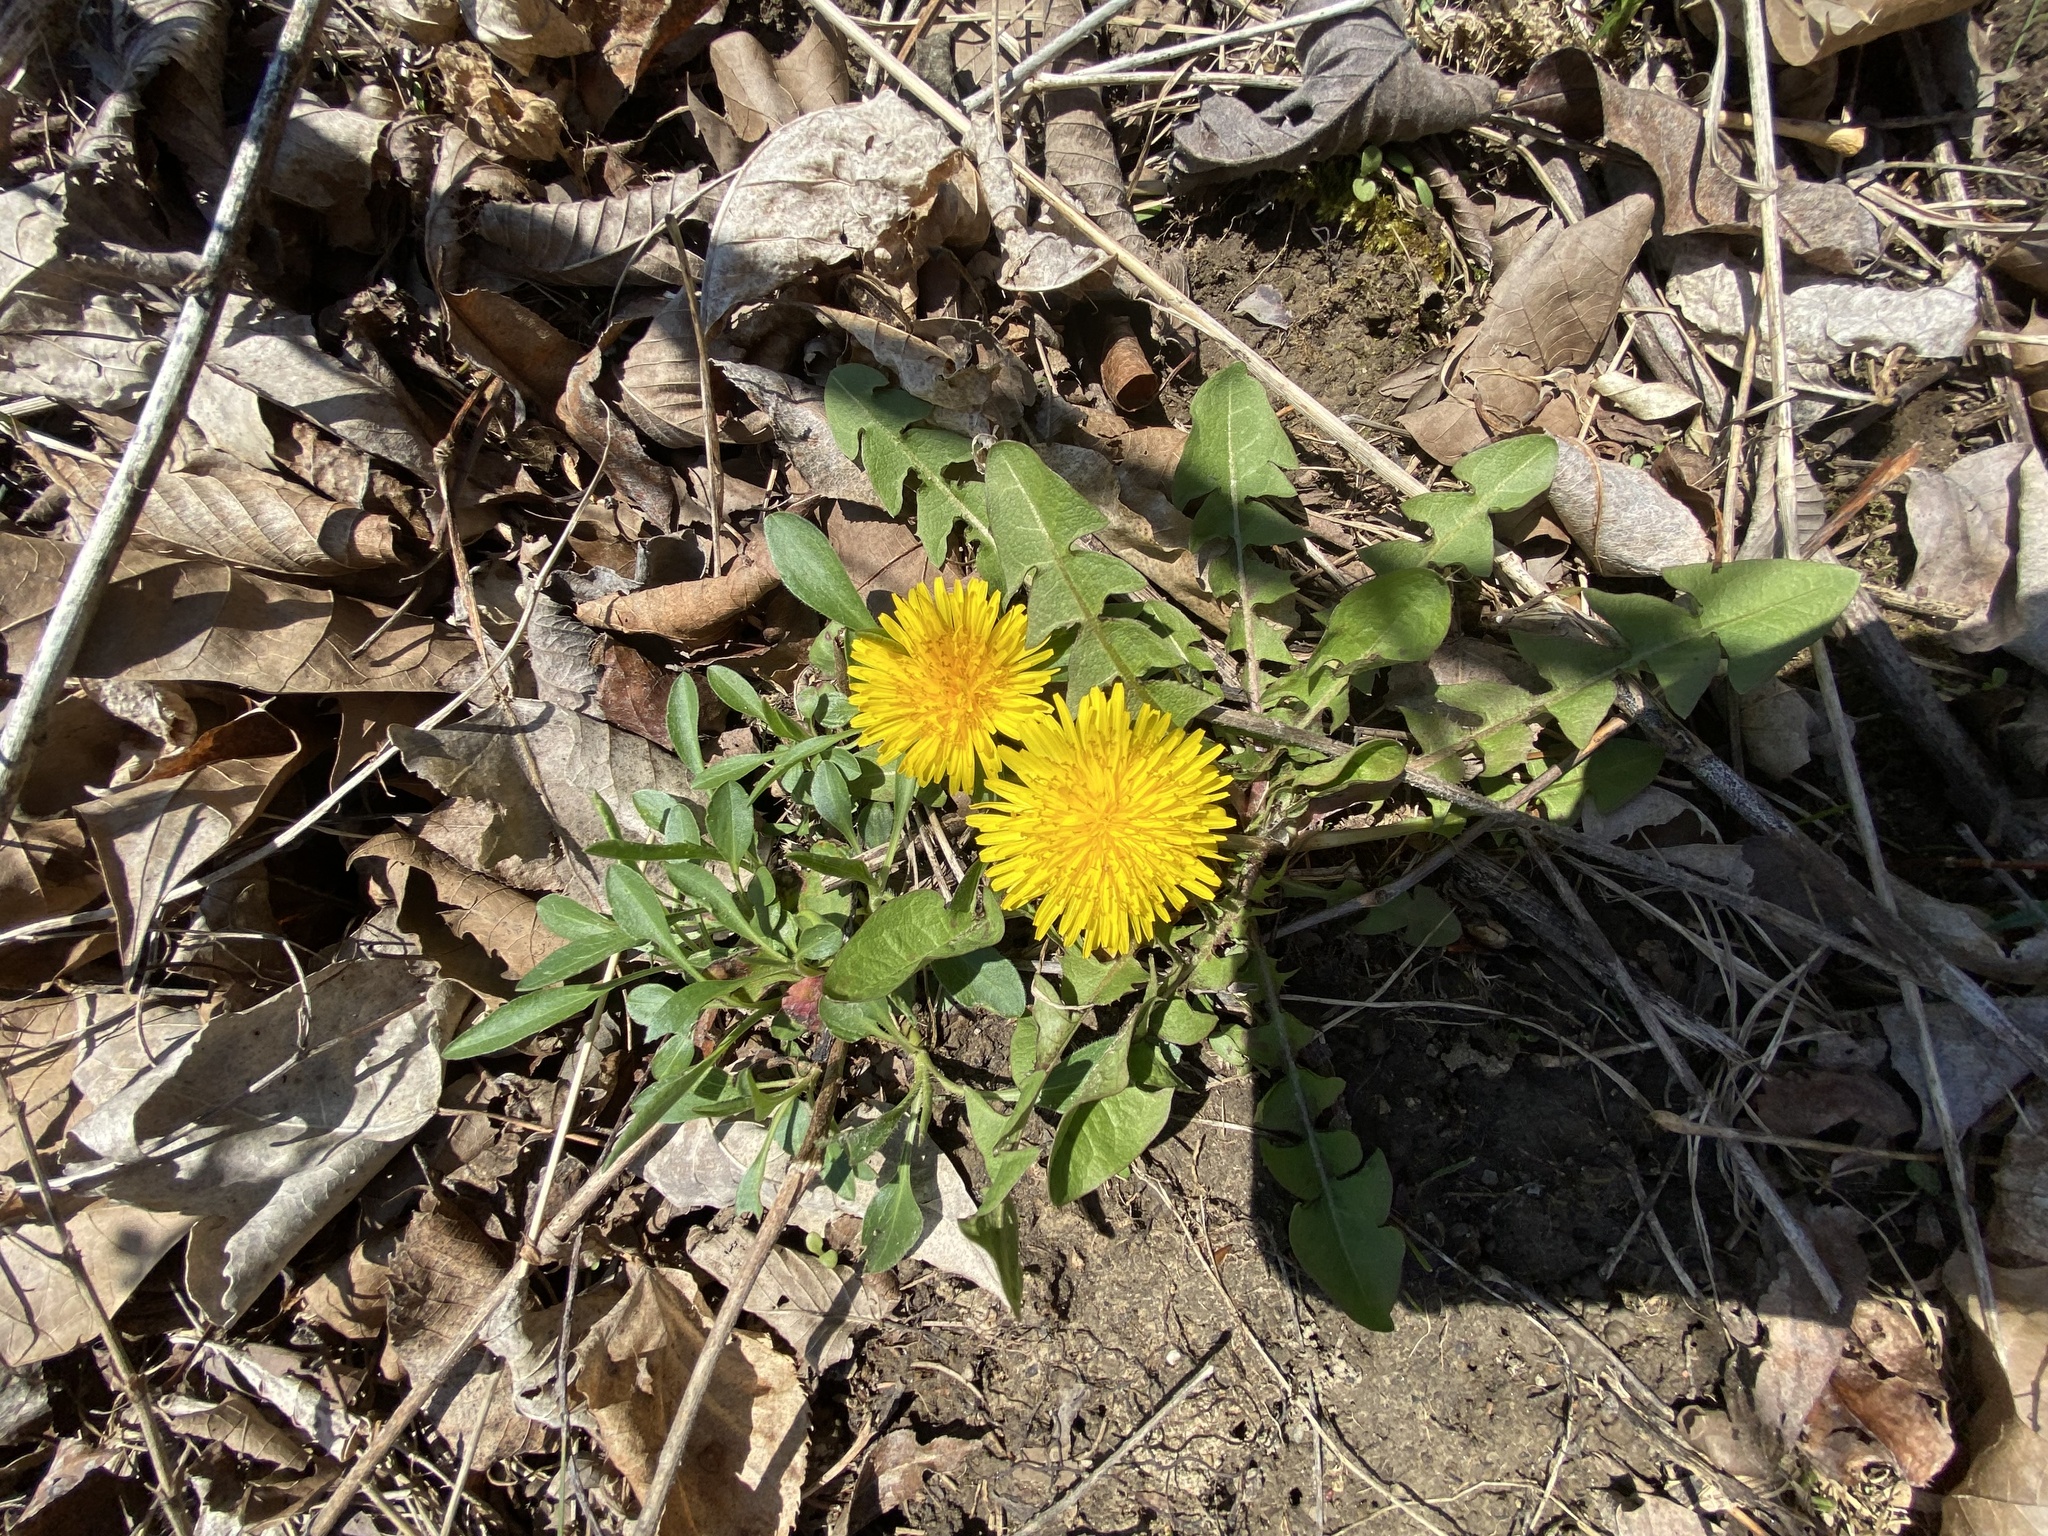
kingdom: Plantae
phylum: Tracheophyta
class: Magnoliopsida
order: Asterales
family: Asteraceae
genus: Taraxacum
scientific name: Taraxacum officinale
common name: Common dandelion
